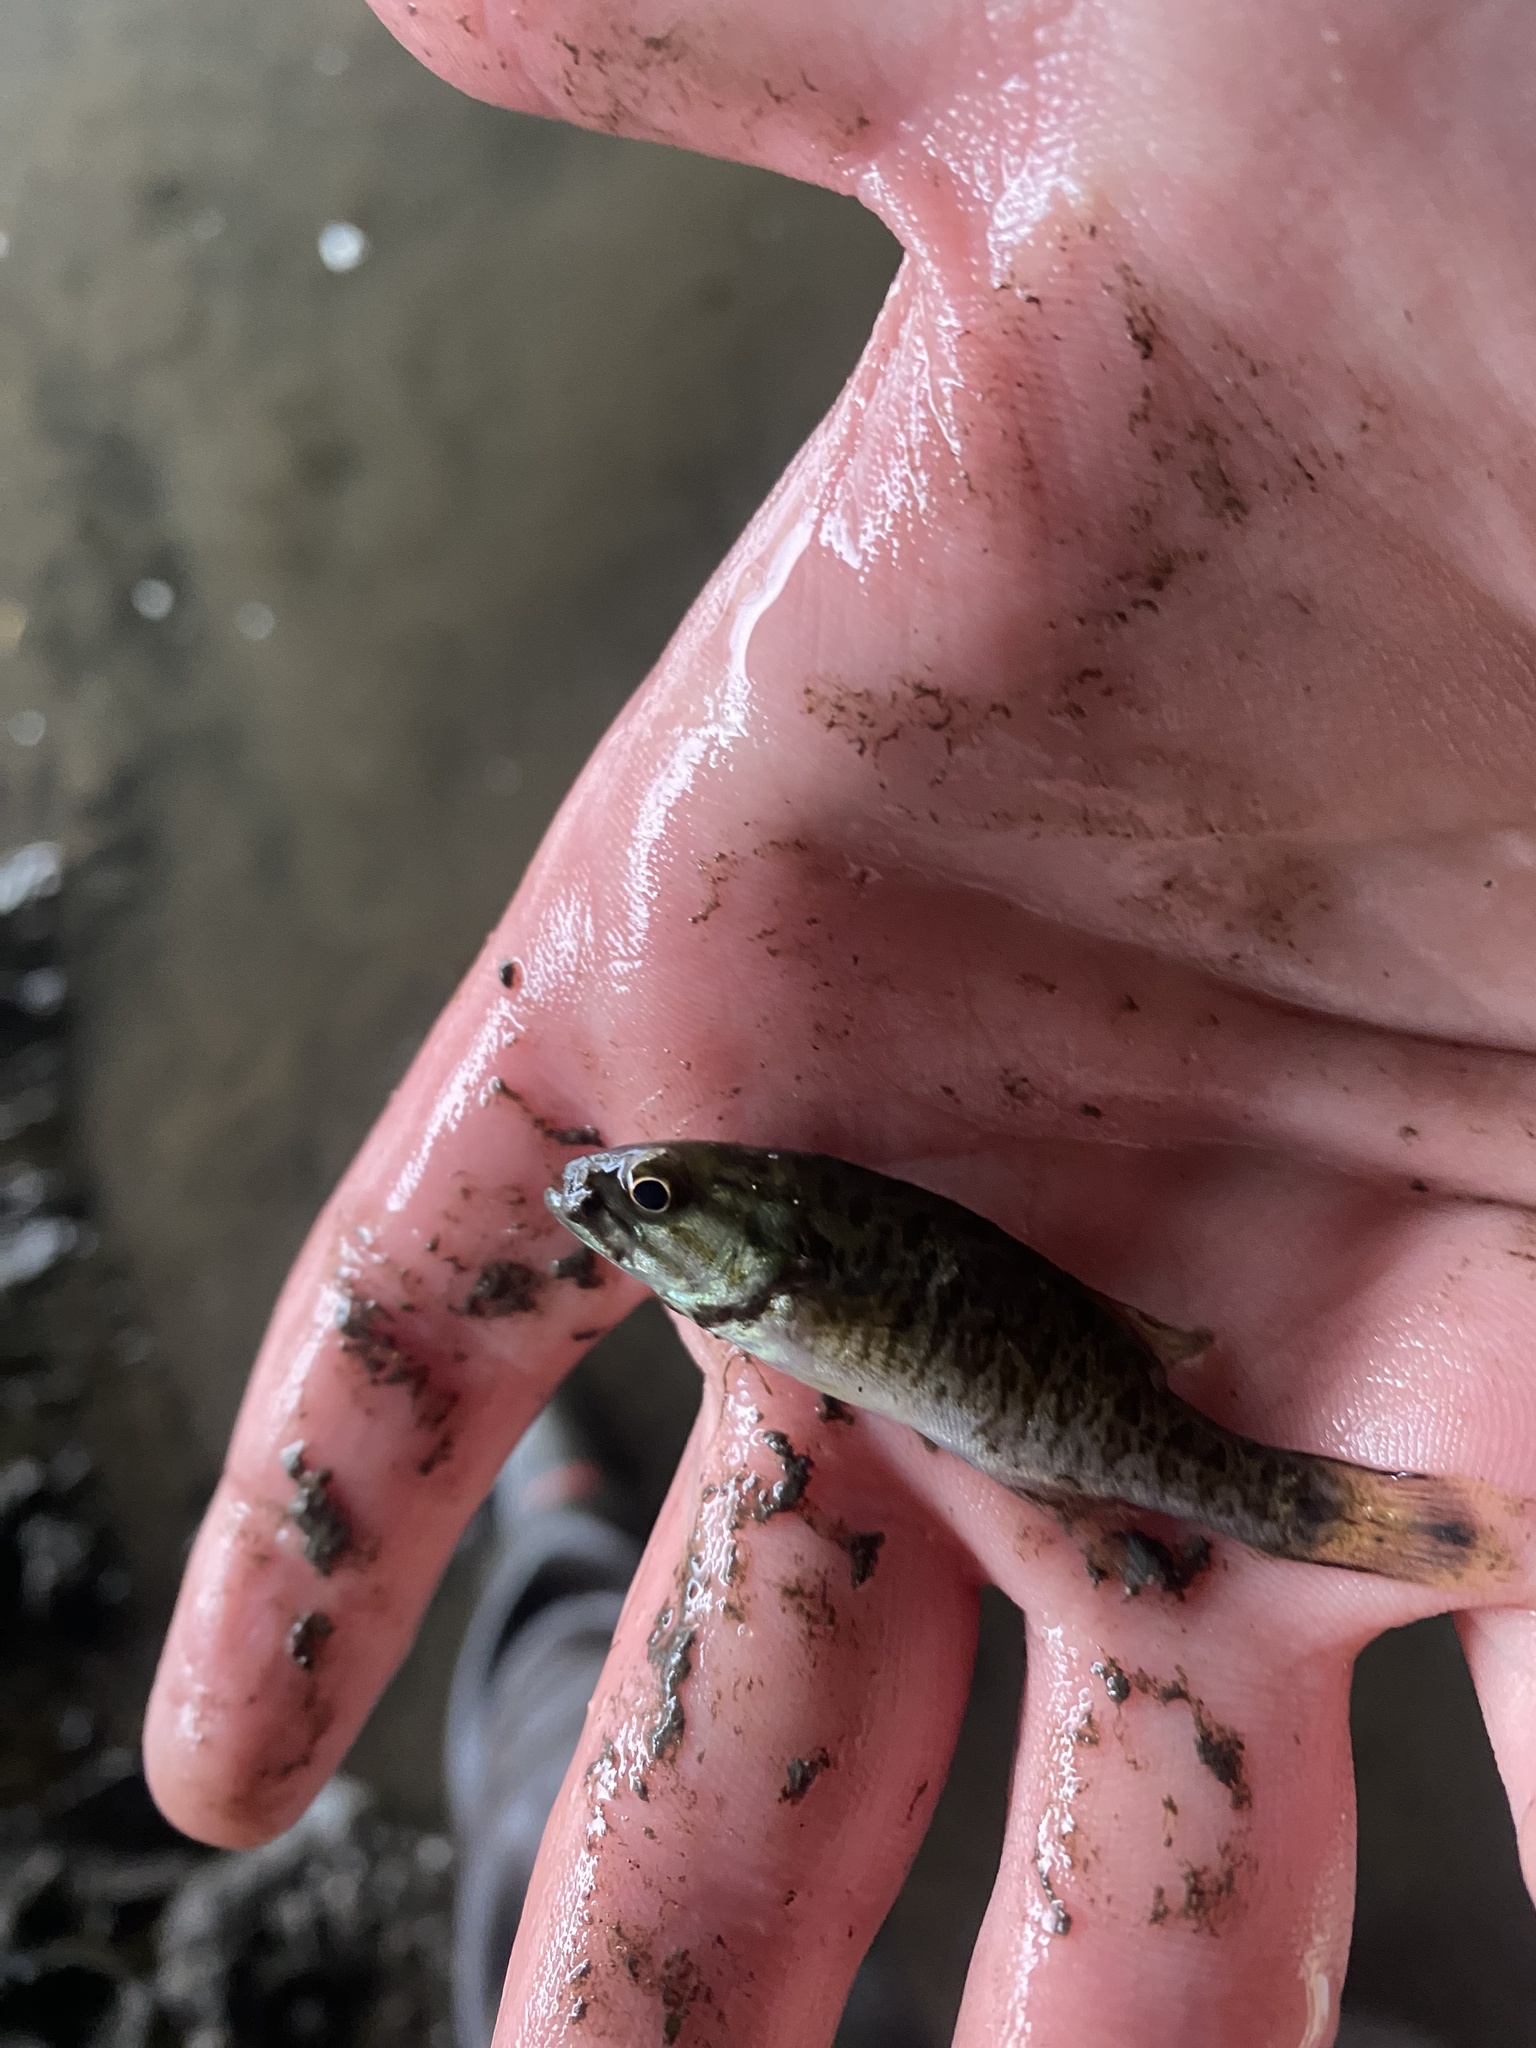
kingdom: Animalia
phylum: Chordata
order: Perciformes
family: Centrarchidae
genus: Micropterus
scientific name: Micropterus dolomieu
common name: Smallmouth bass
